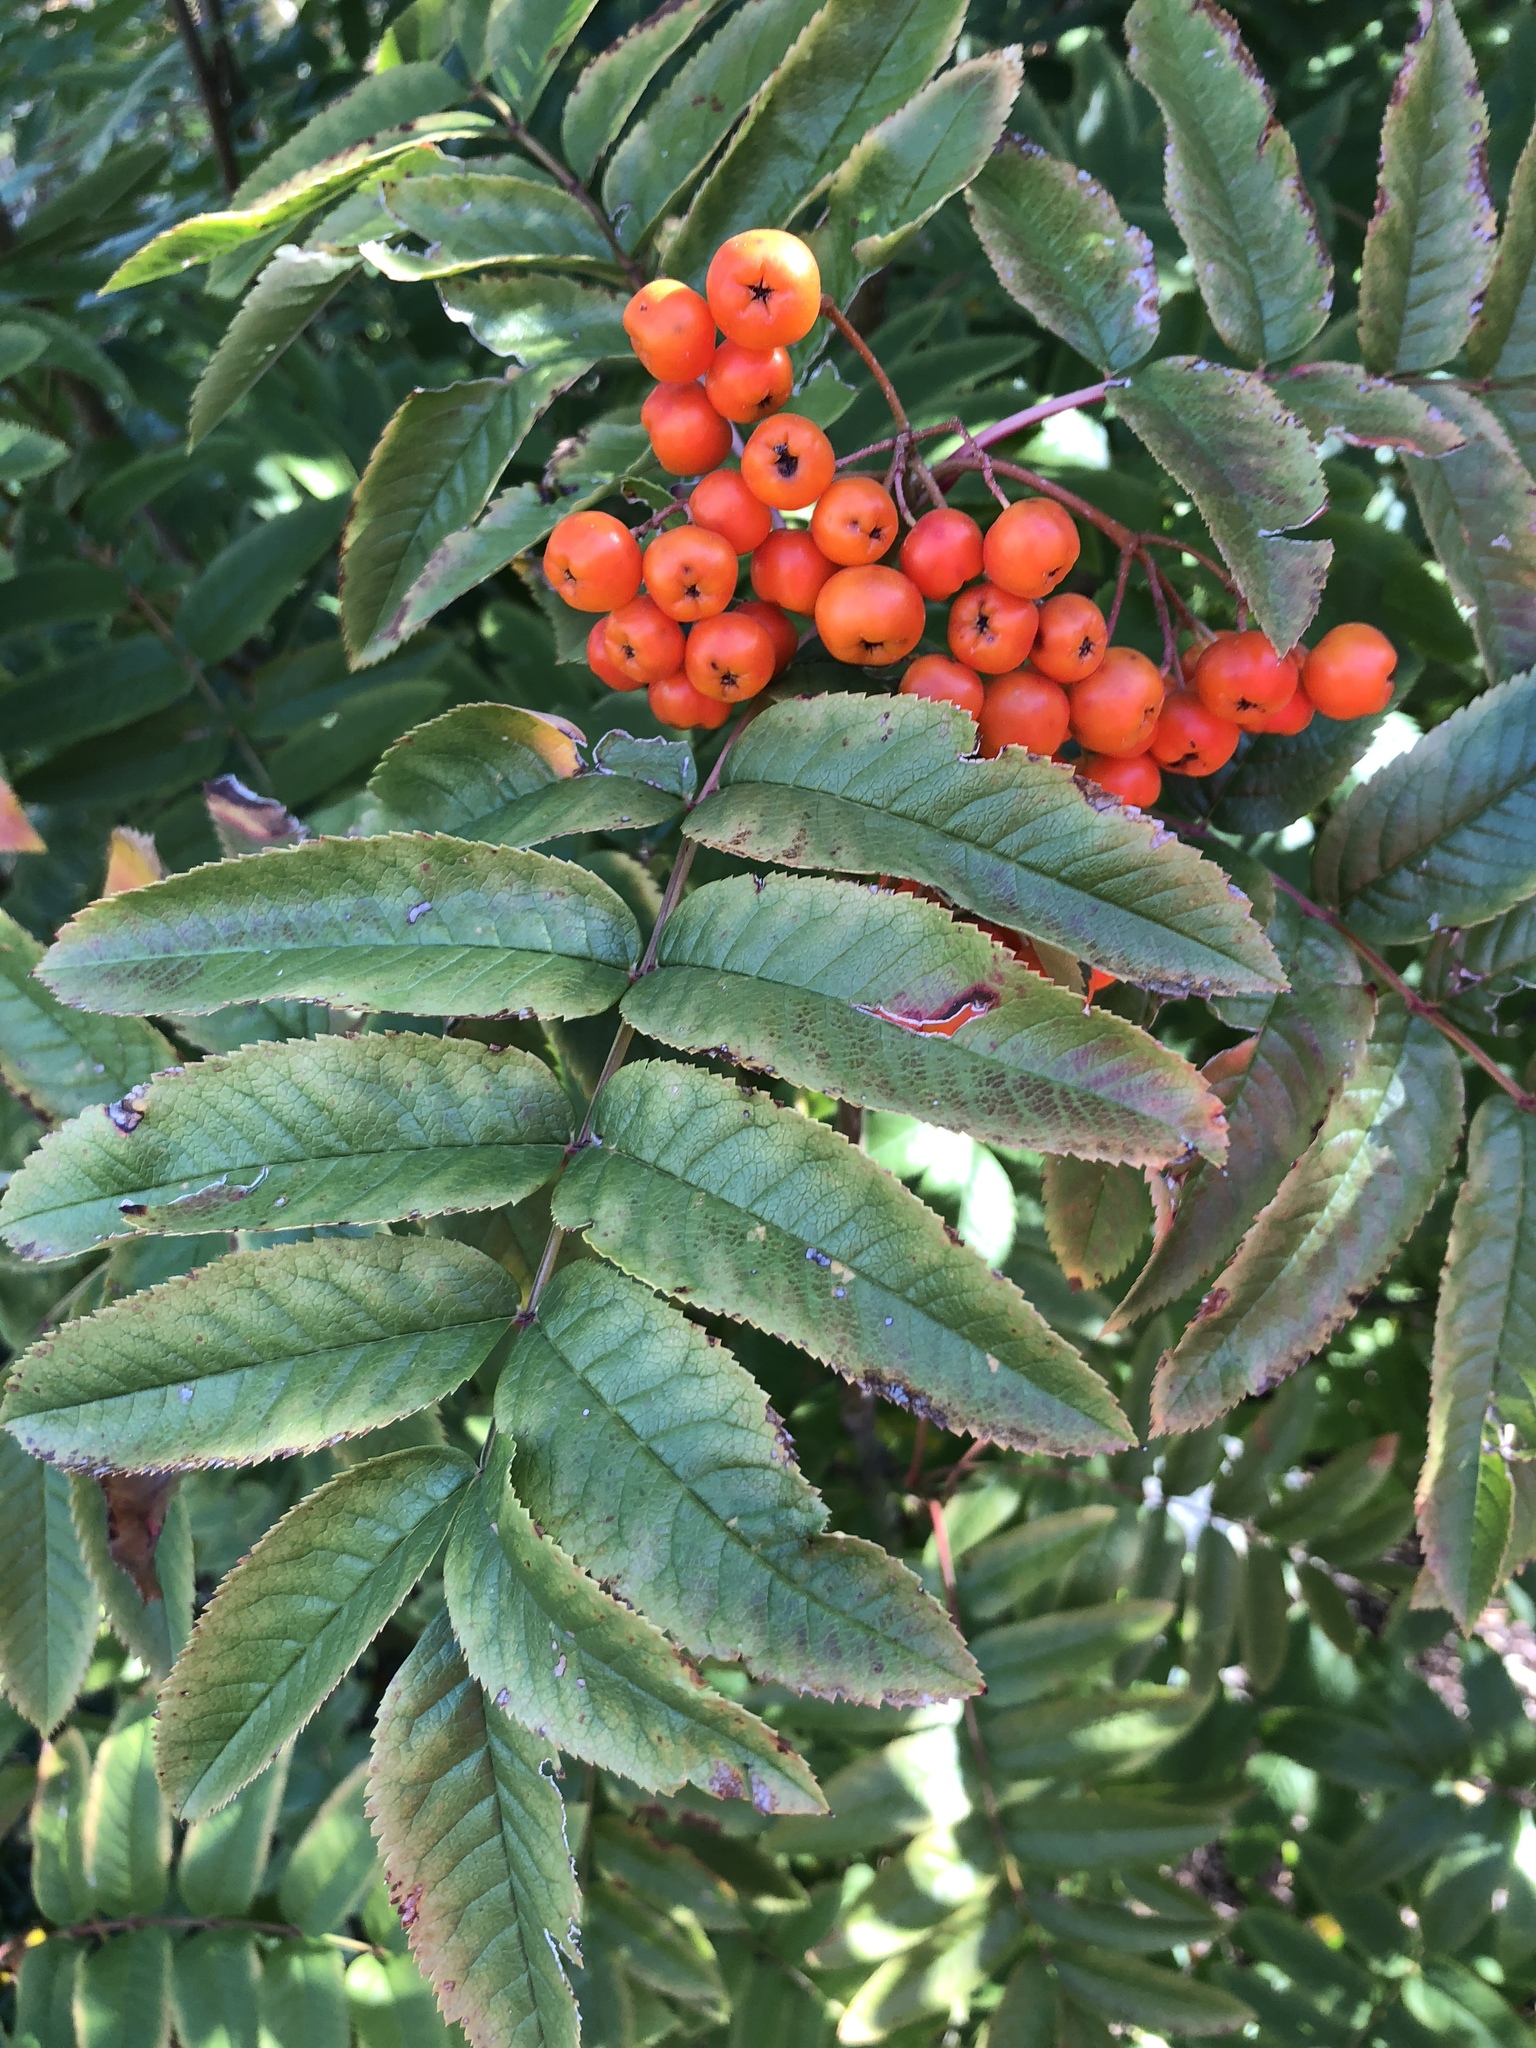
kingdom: Plantae
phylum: Tracheophyta
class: Magnoliopsida
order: Rosales
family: Rosaceae
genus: Sorbus
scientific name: Sorbus aucuparia
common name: Rowan
